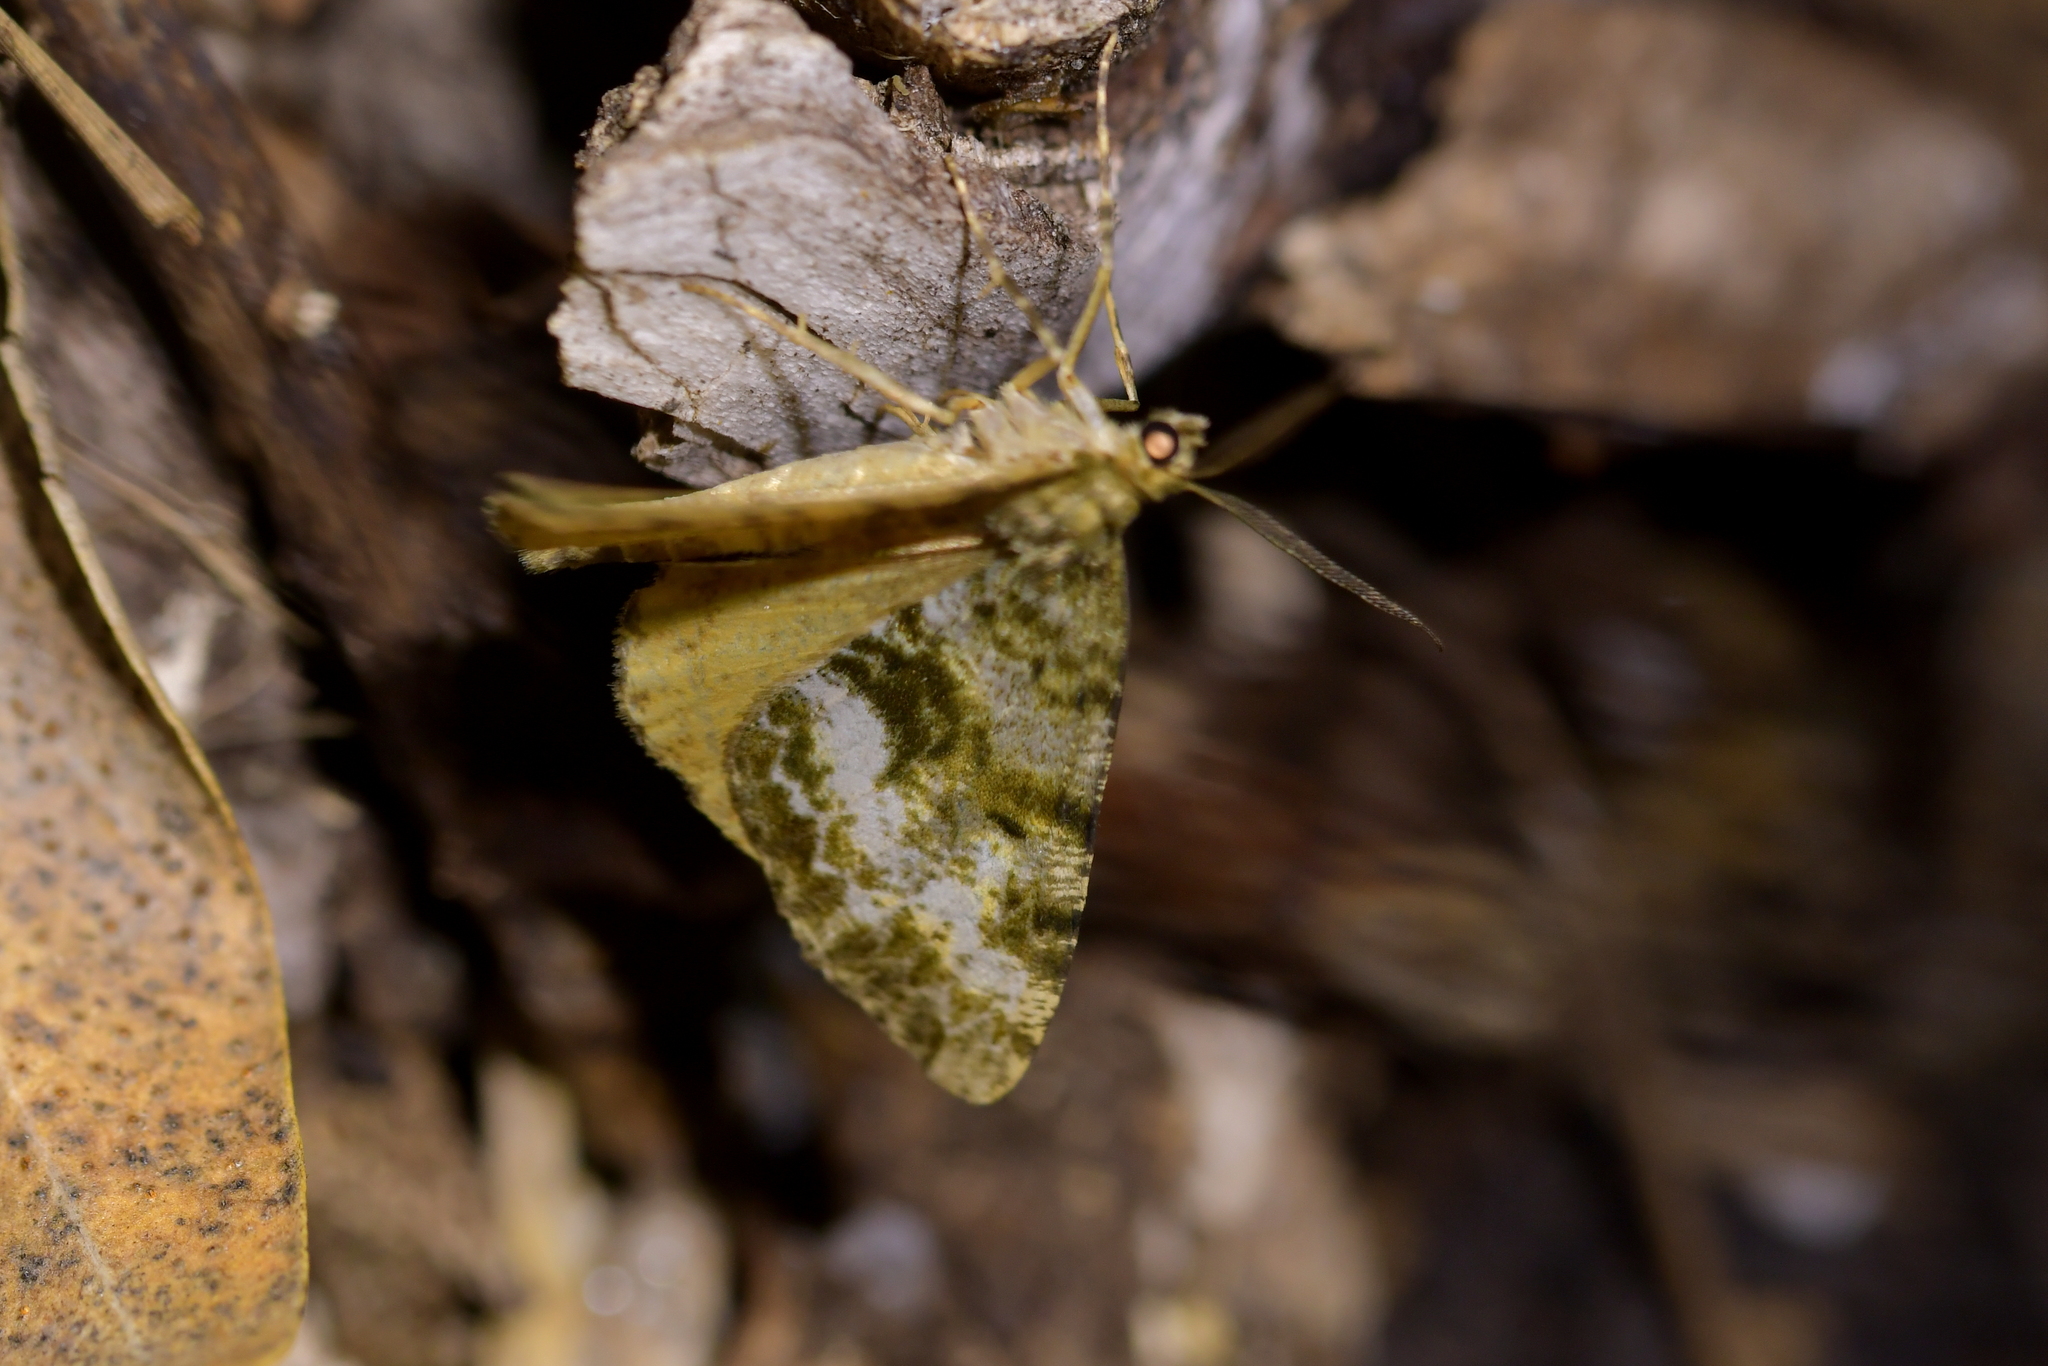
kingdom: Animalia
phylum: Arthropoda
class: Insecta
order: Lepidoptera
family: Geometridae
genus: Pseudocoremia
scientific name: Pseudocoremia lactiflua
